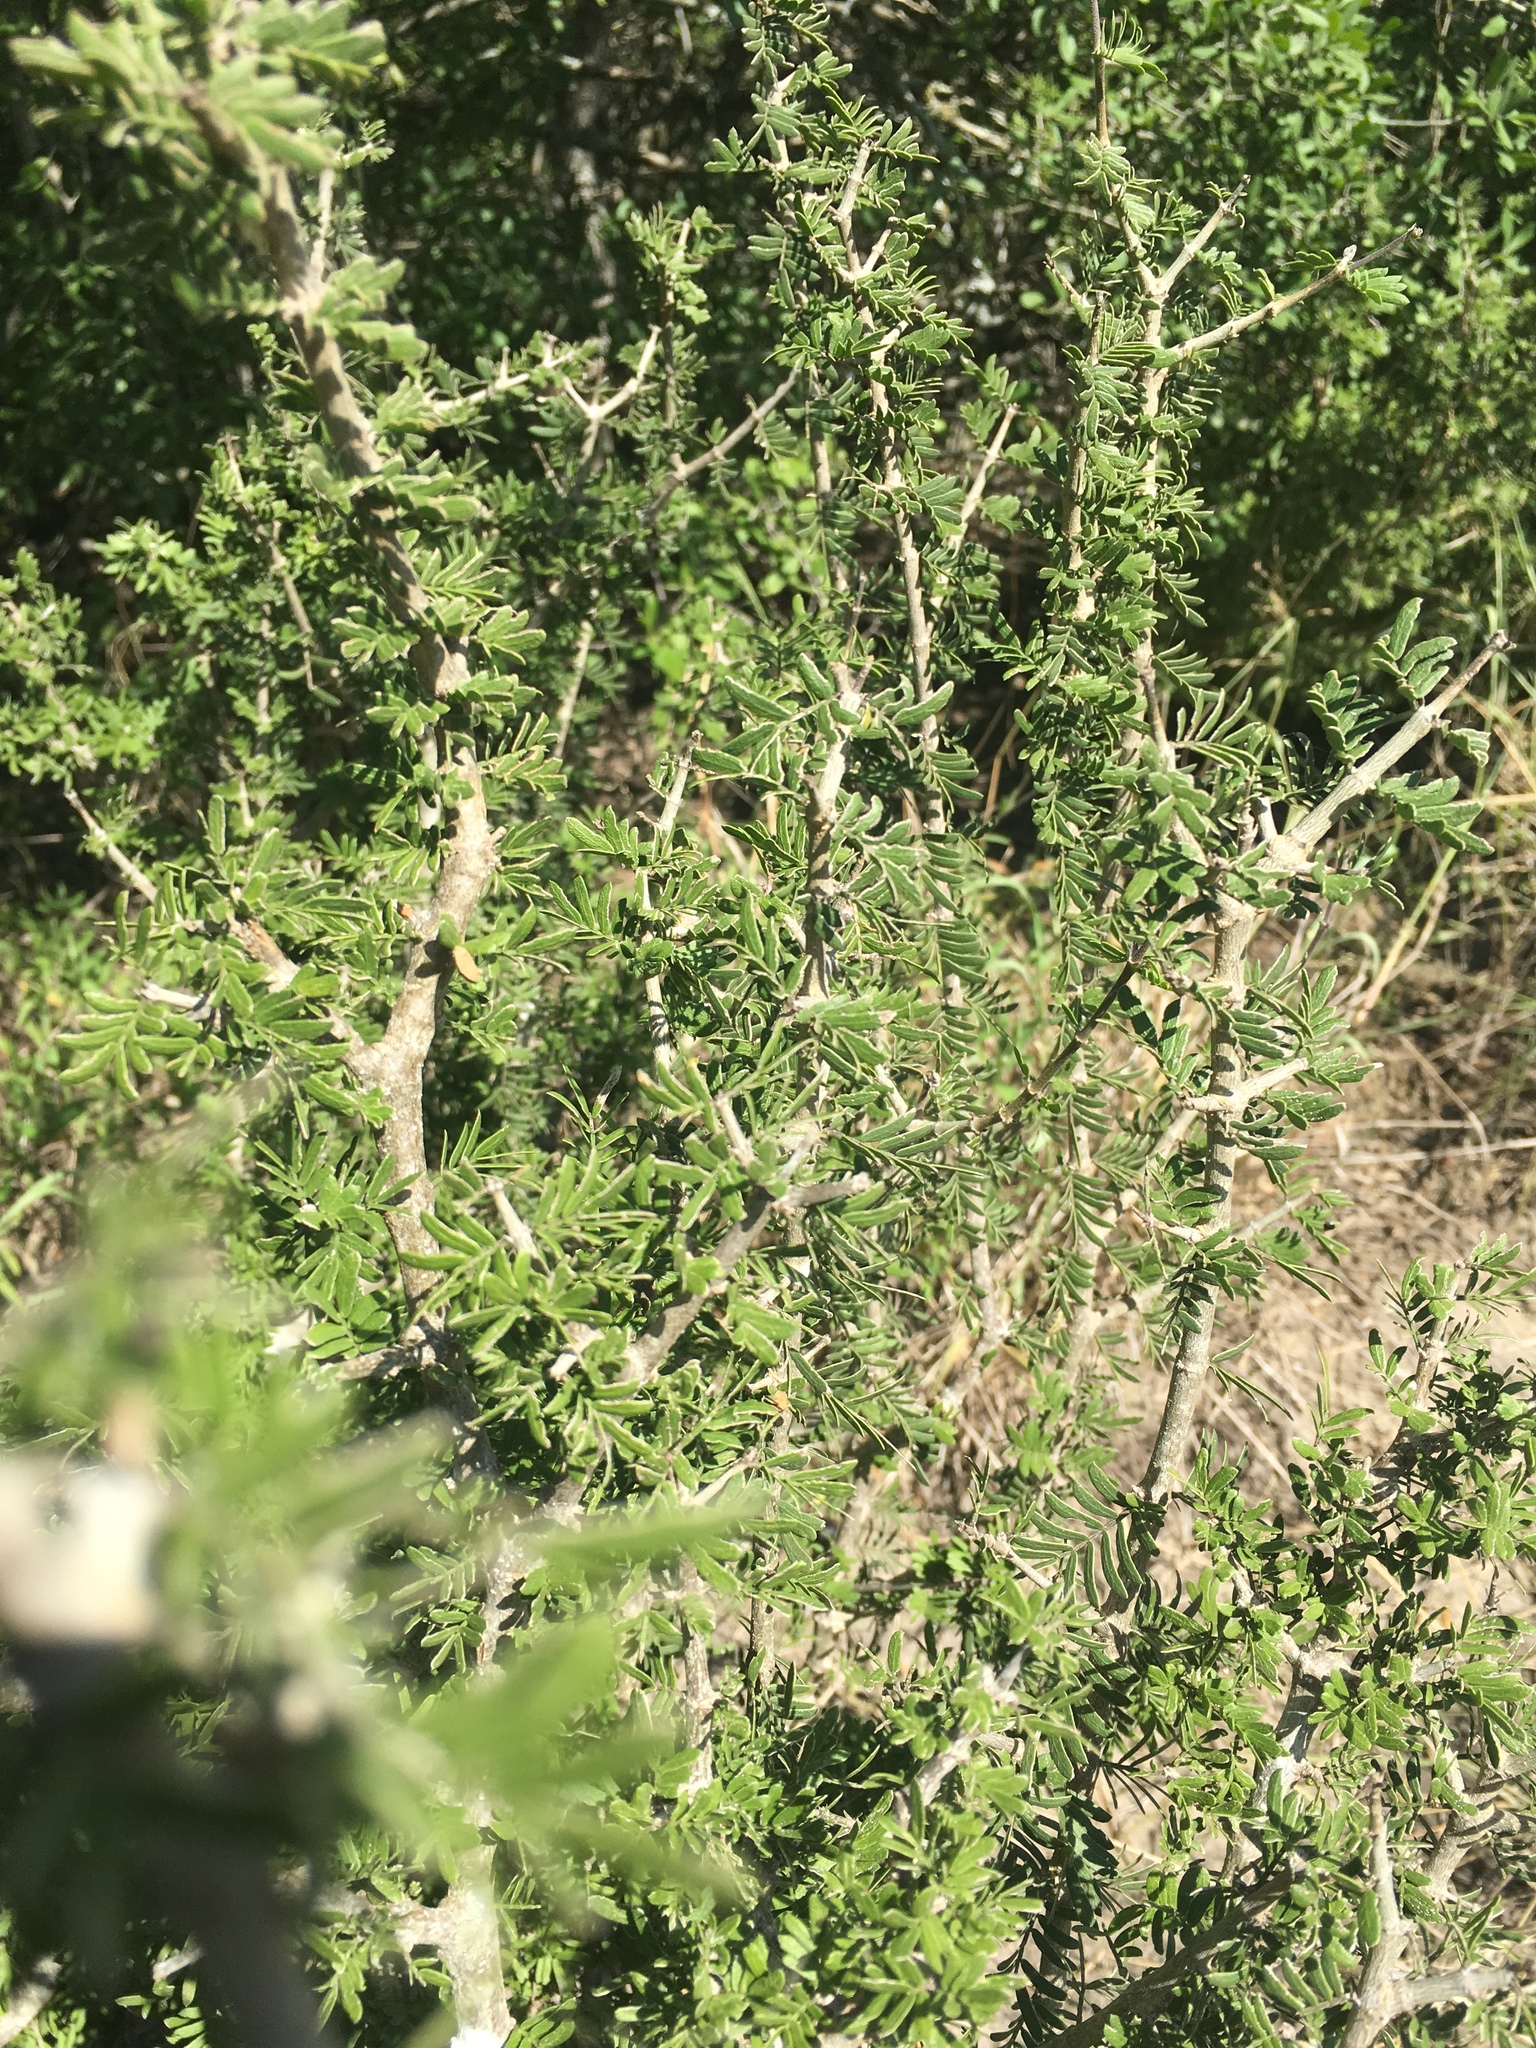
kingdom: Plantae
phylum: Tracheophyta
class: Magnoliopsida
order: Zygophyllales
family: Zygophyllaceae
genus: Porlieria
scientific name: Porlieria angustifolia
